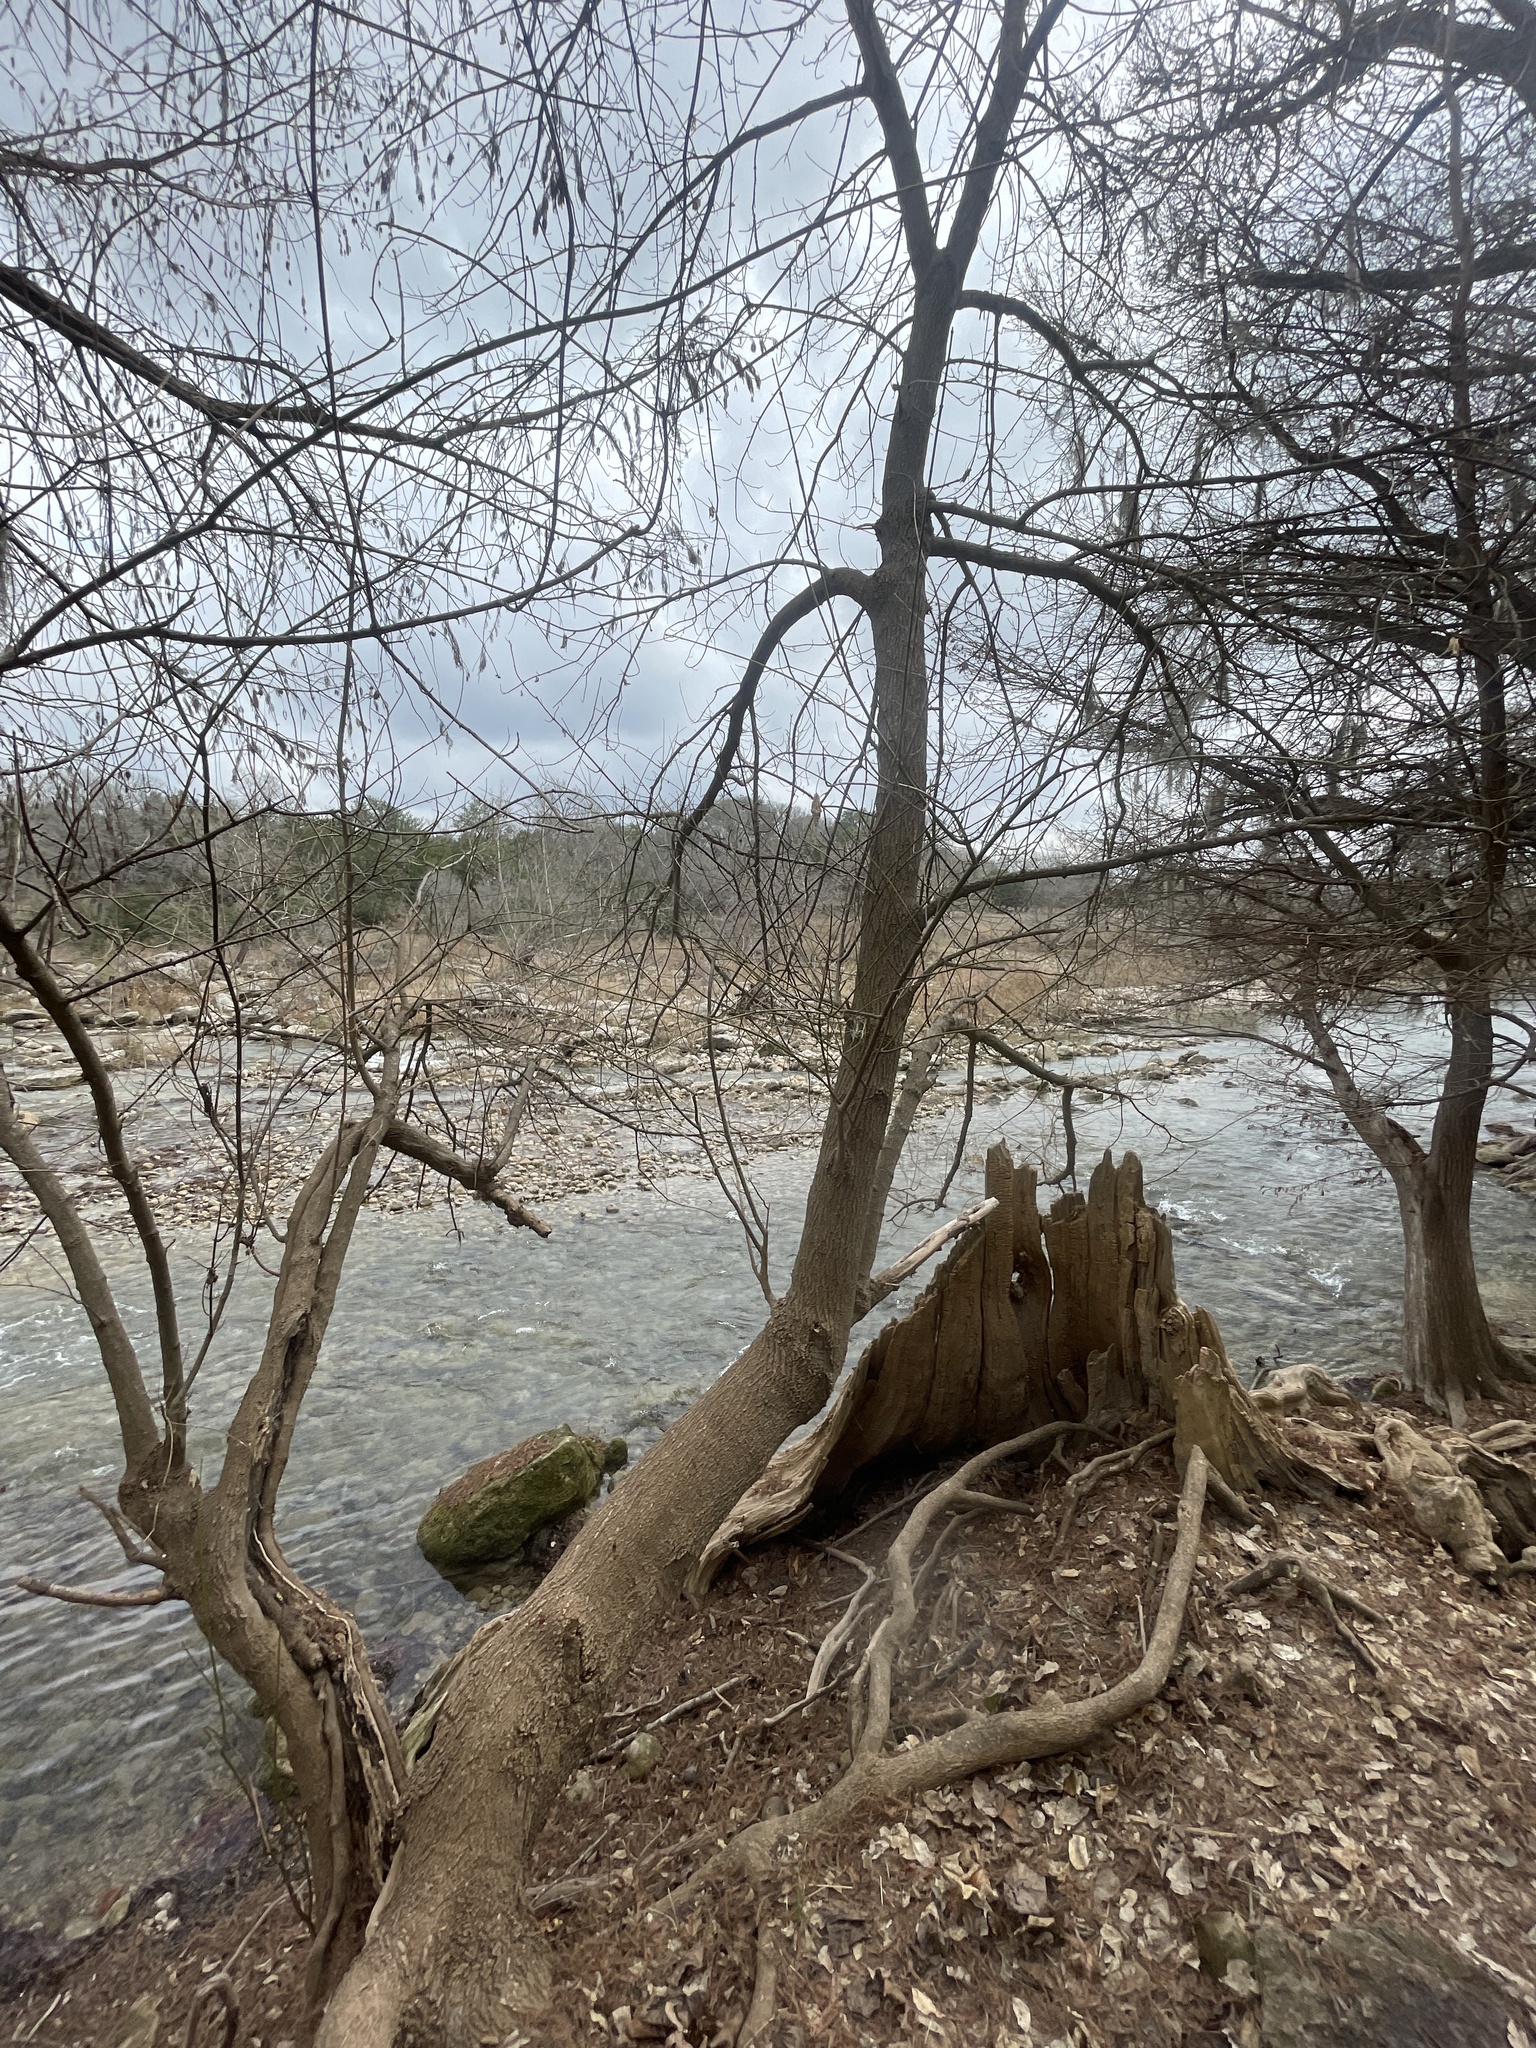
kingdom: Plantae
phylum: Tracheophyta
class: Magnoliopsida
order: Sapindales
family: Sapindaceae
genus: Acer
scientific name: Acer negundo
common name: Ashleaf maple
